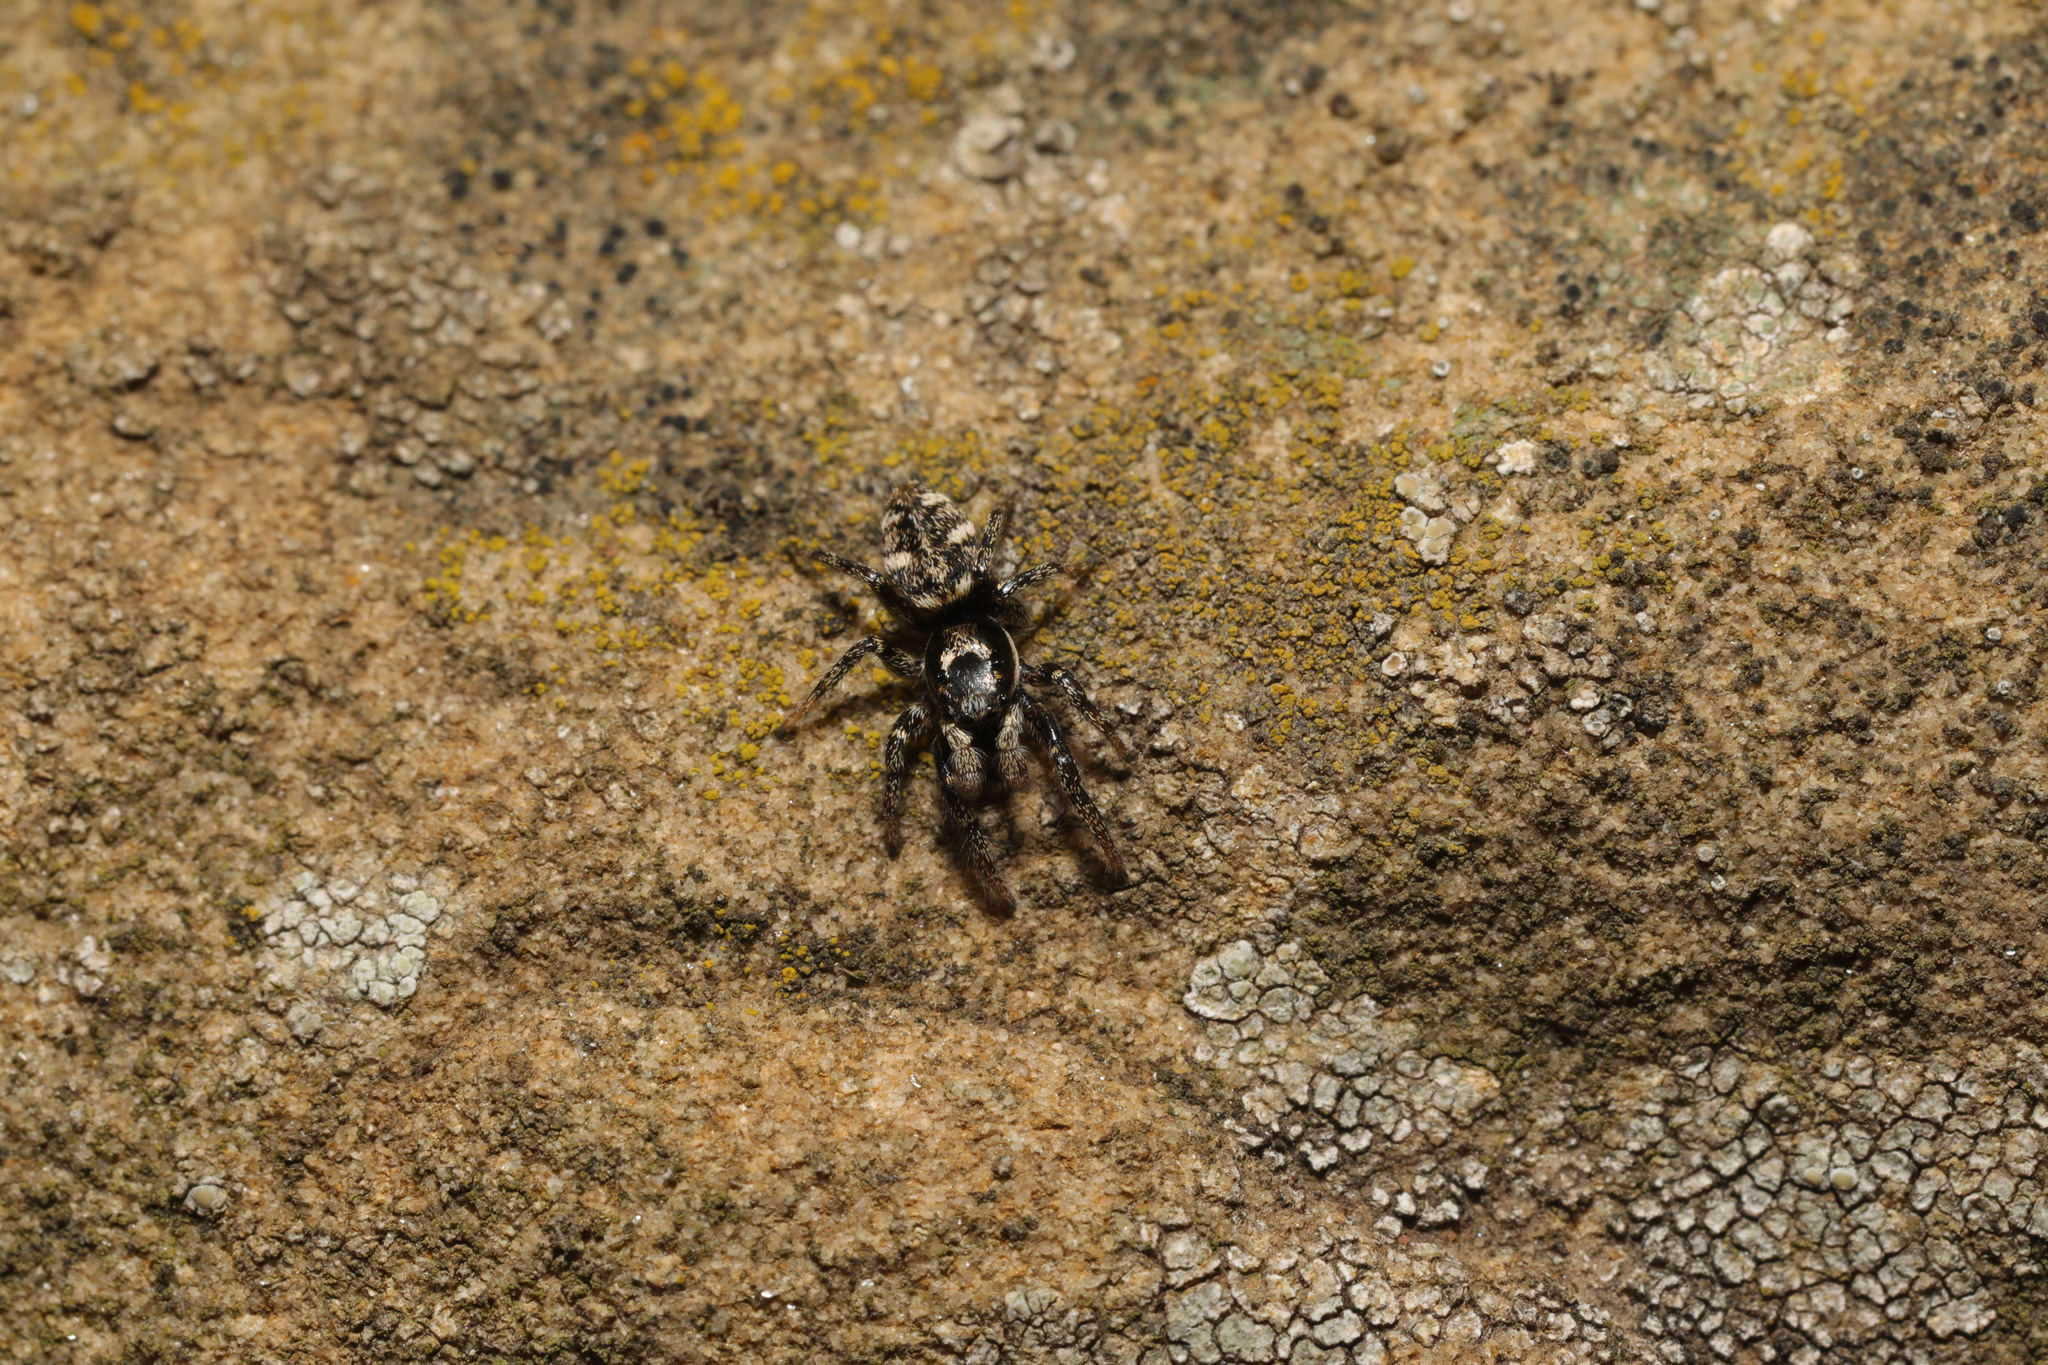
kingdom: Animalia
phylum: Arthropoda
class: Arachnida
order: Araneae
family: Salticidae
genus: Salticus
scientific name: Salticus scenicus
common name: Zebra jumper
